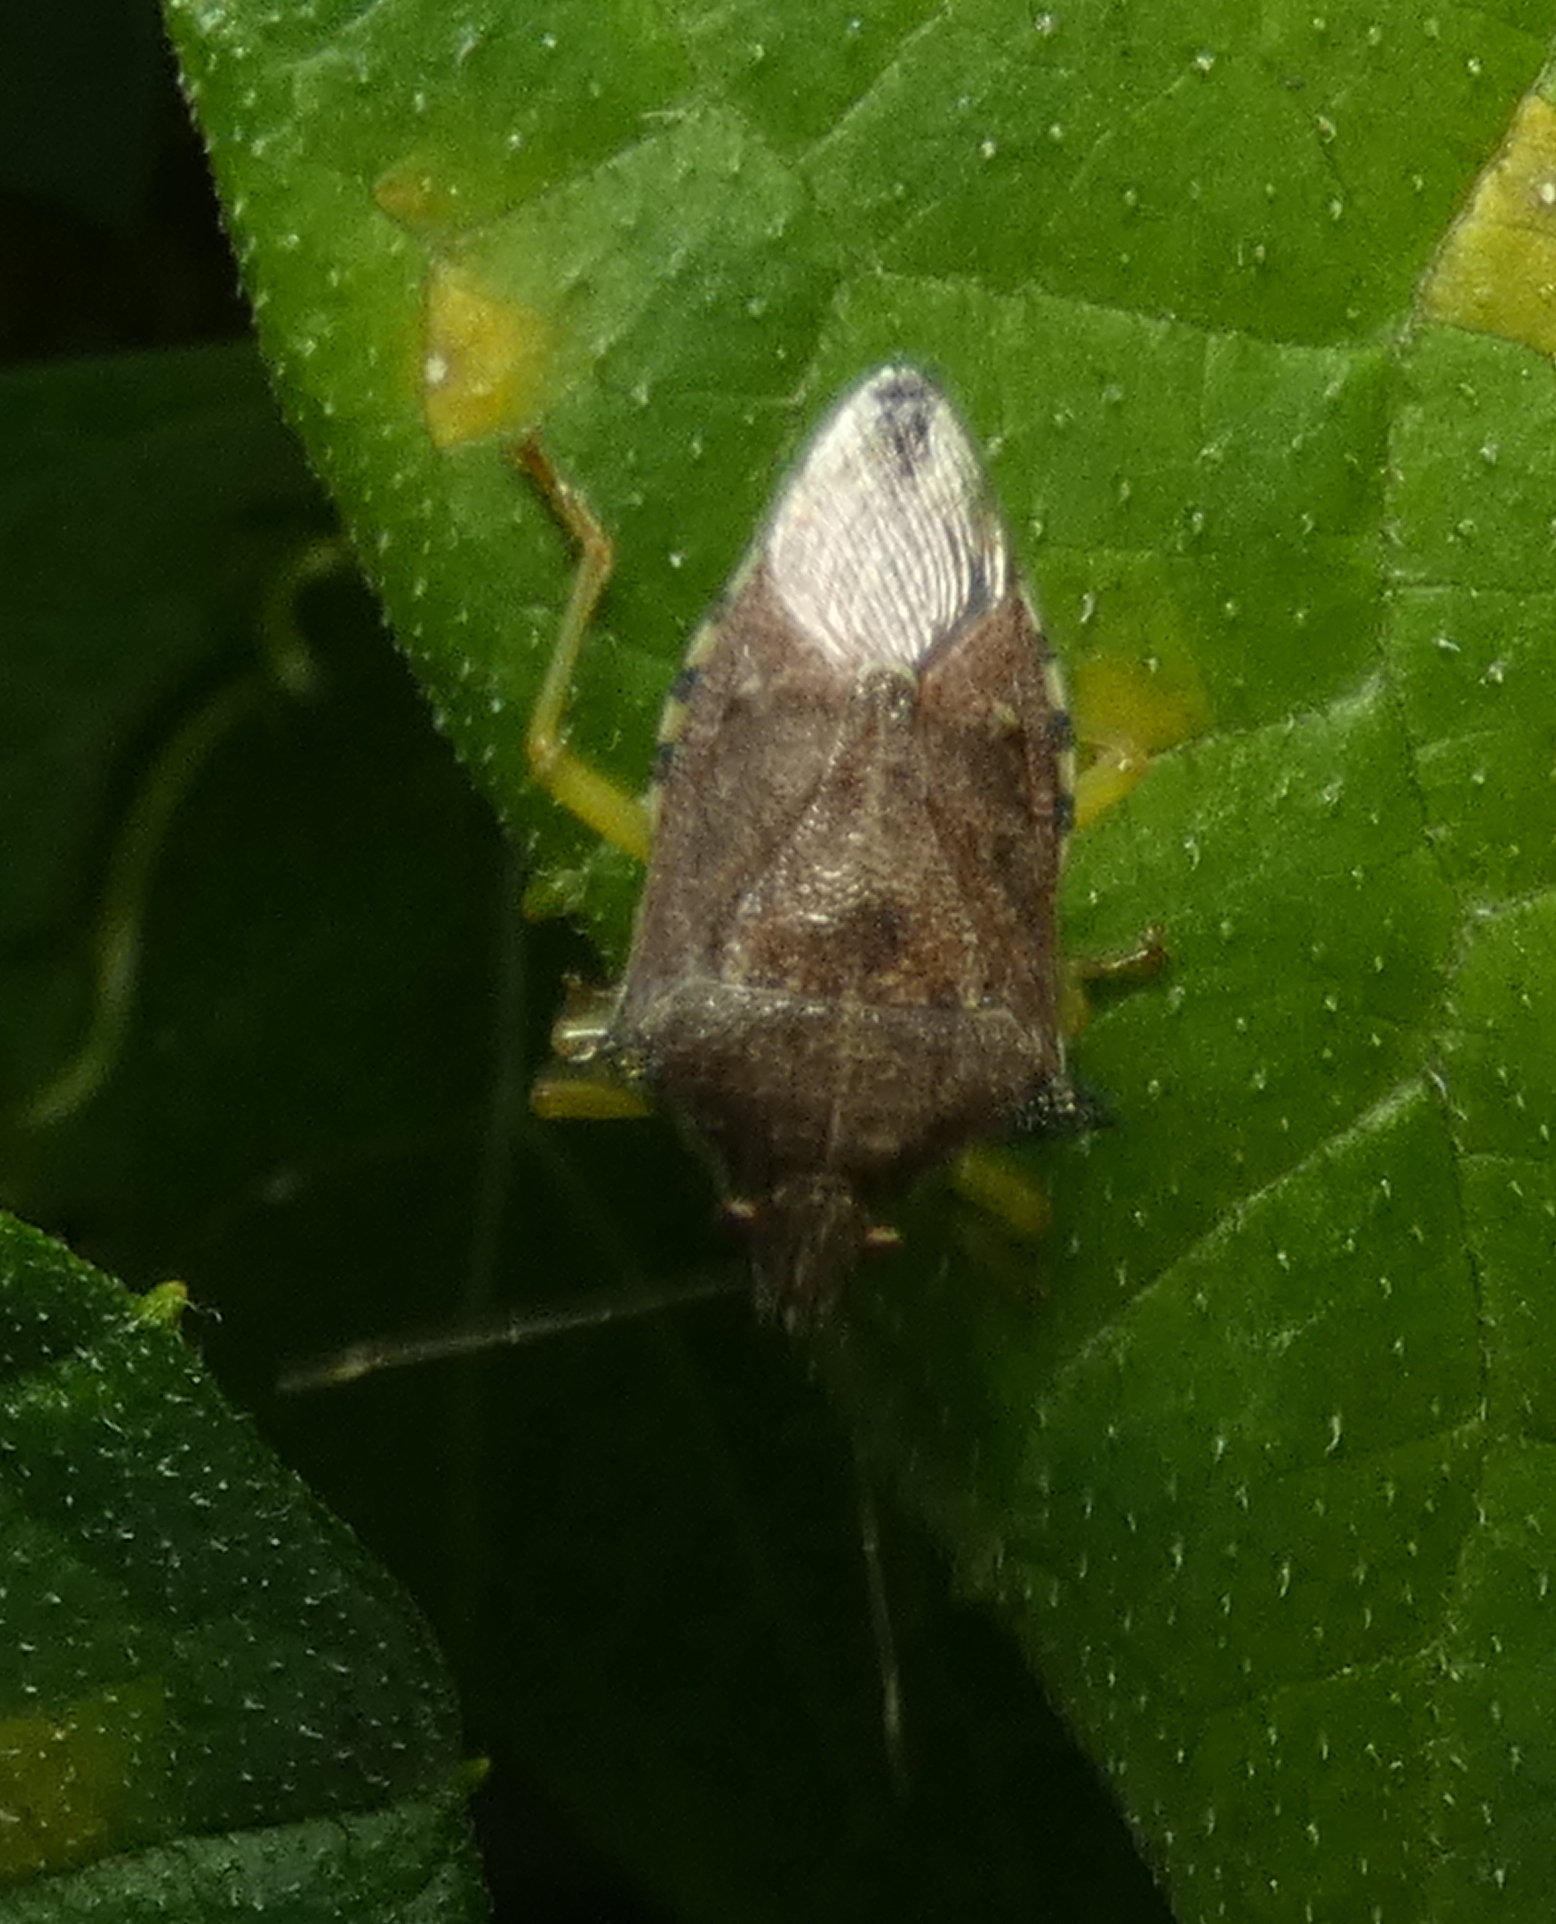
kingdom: Animalia
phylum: Arthropoda
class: Insecta
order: Hemiptera
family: Pentatomidae
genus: Podisus
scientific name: Podisus nigrispinus
